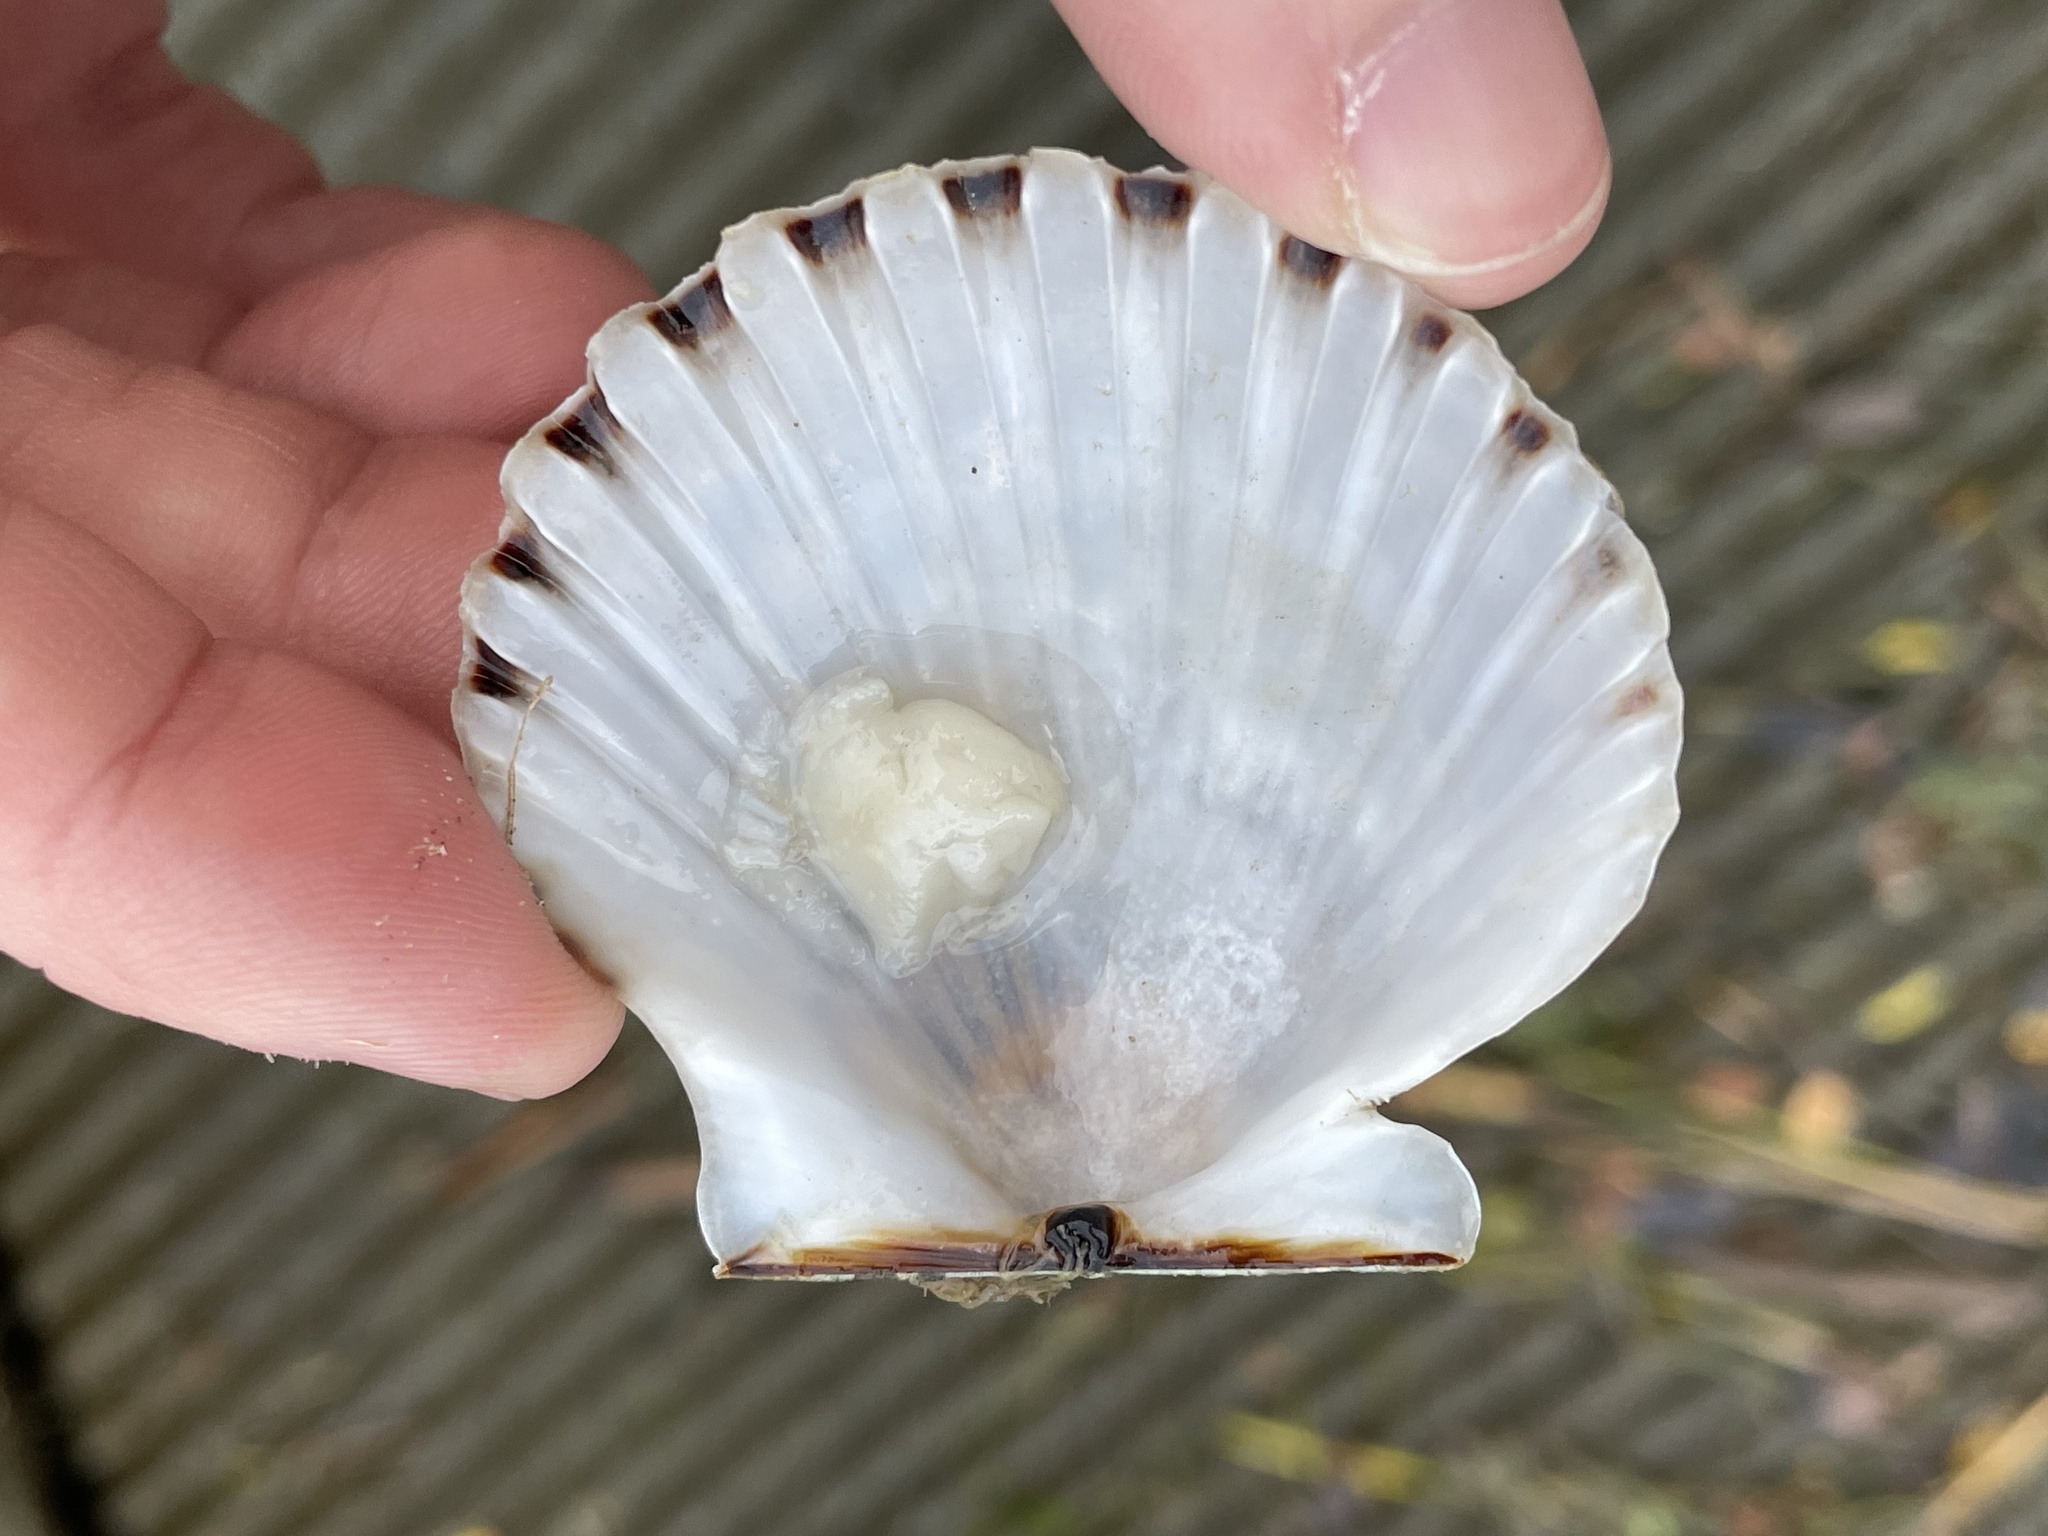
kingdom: Animalia
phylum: Mollusca
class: Bivalvia
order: Pectinida
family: Pectinidae
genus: Argopecten
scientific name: Argopecten irradians
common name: Atlantic bay scallop
